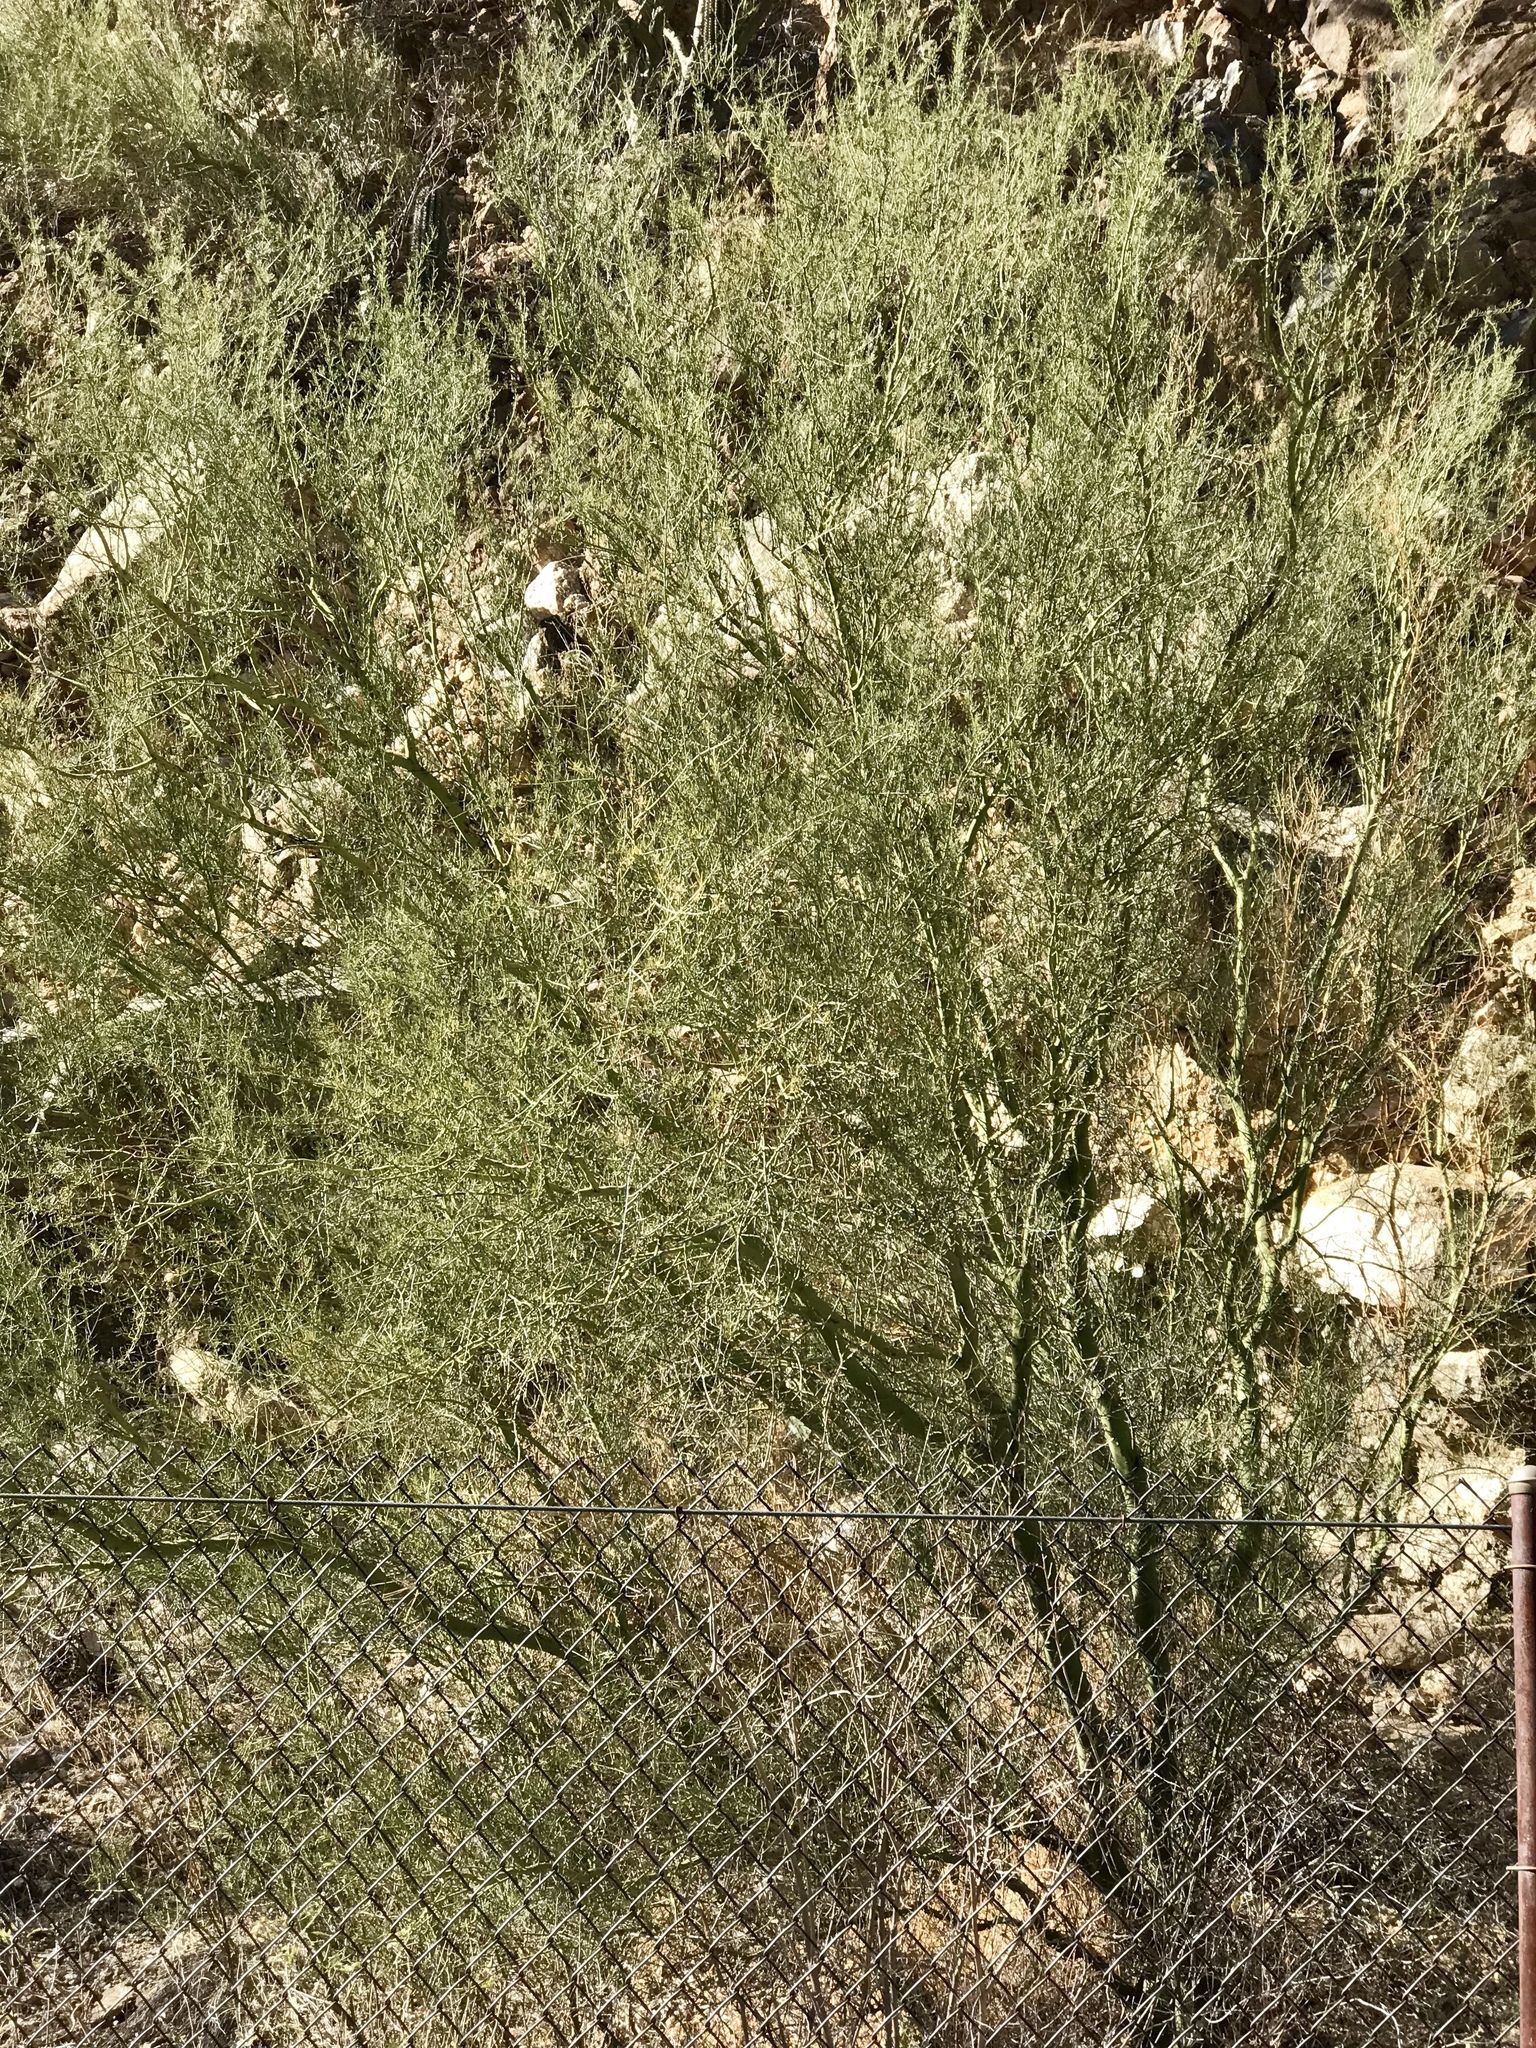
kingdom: Plantae
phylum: Tracheophyta
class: Magnoliopsida
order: Fabales
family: Fabaceae
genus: Parkinsonia
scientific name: Parkinsonia microphylla
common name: Yellow paloverde
